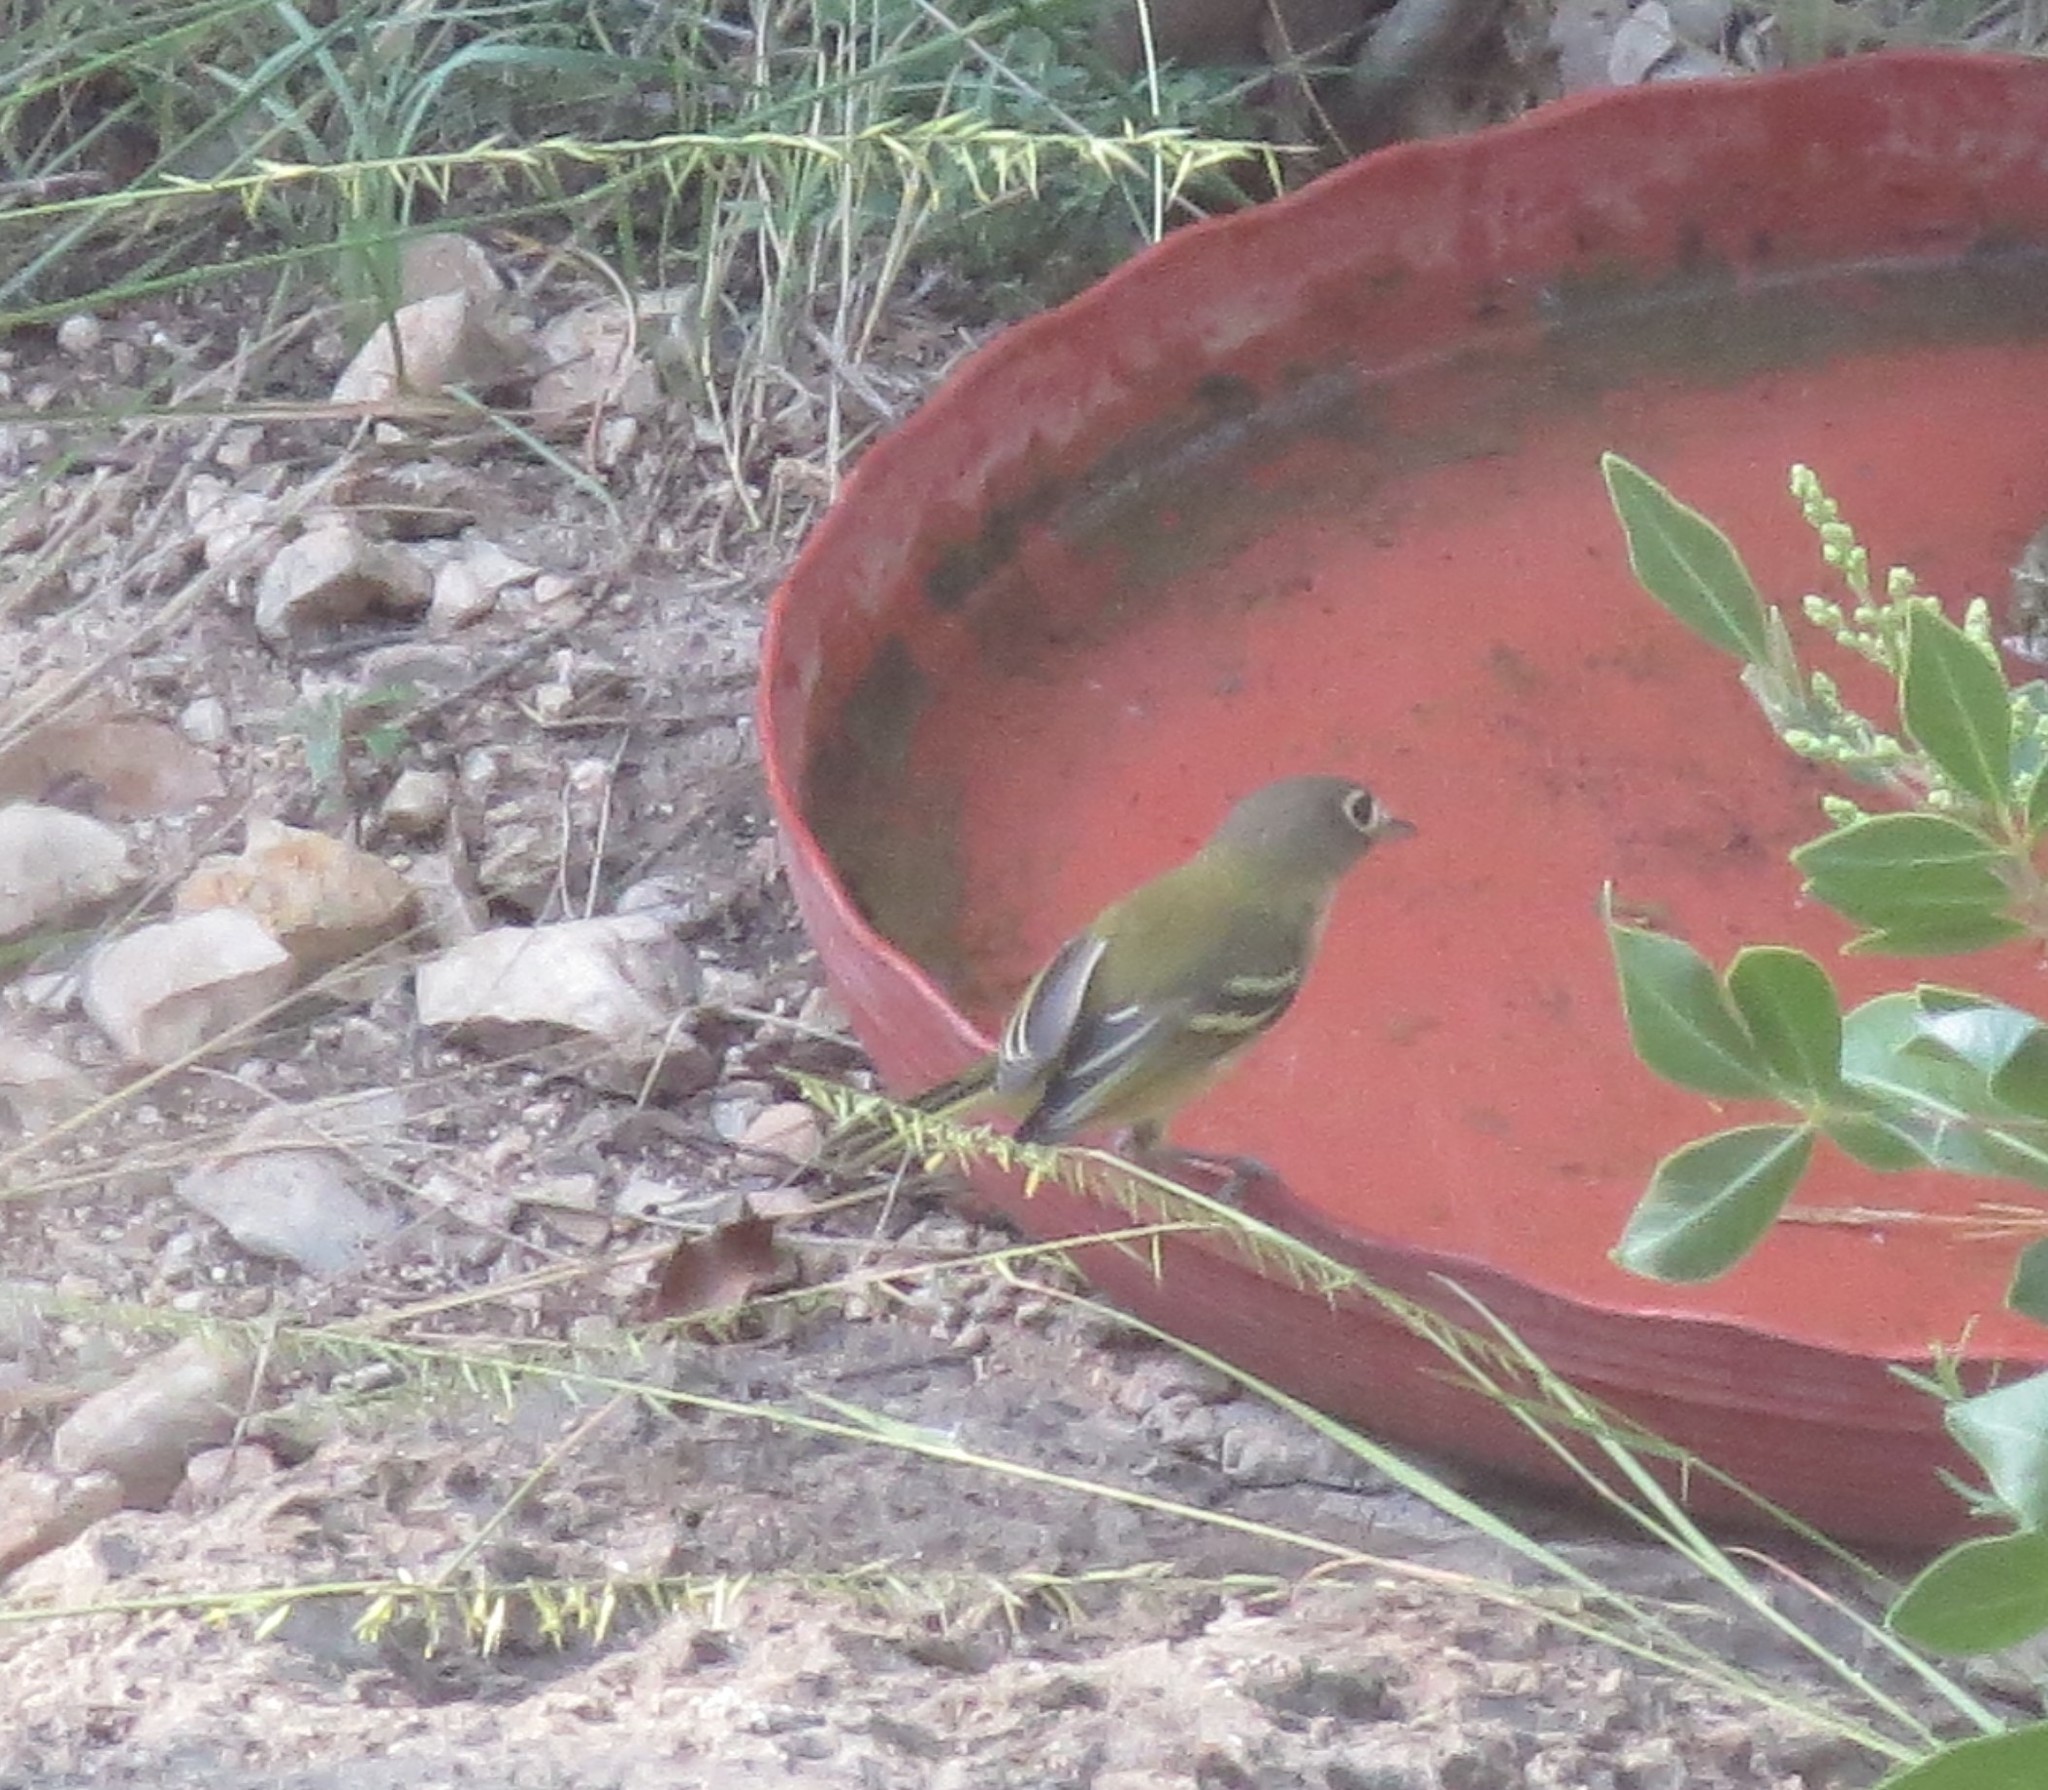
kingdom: Animalia
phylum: Chordata
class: Aves
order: Passeriformes
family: Vireonidae
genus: Vireo
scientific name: Vireo atricapilla
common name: Black-capped vireo
